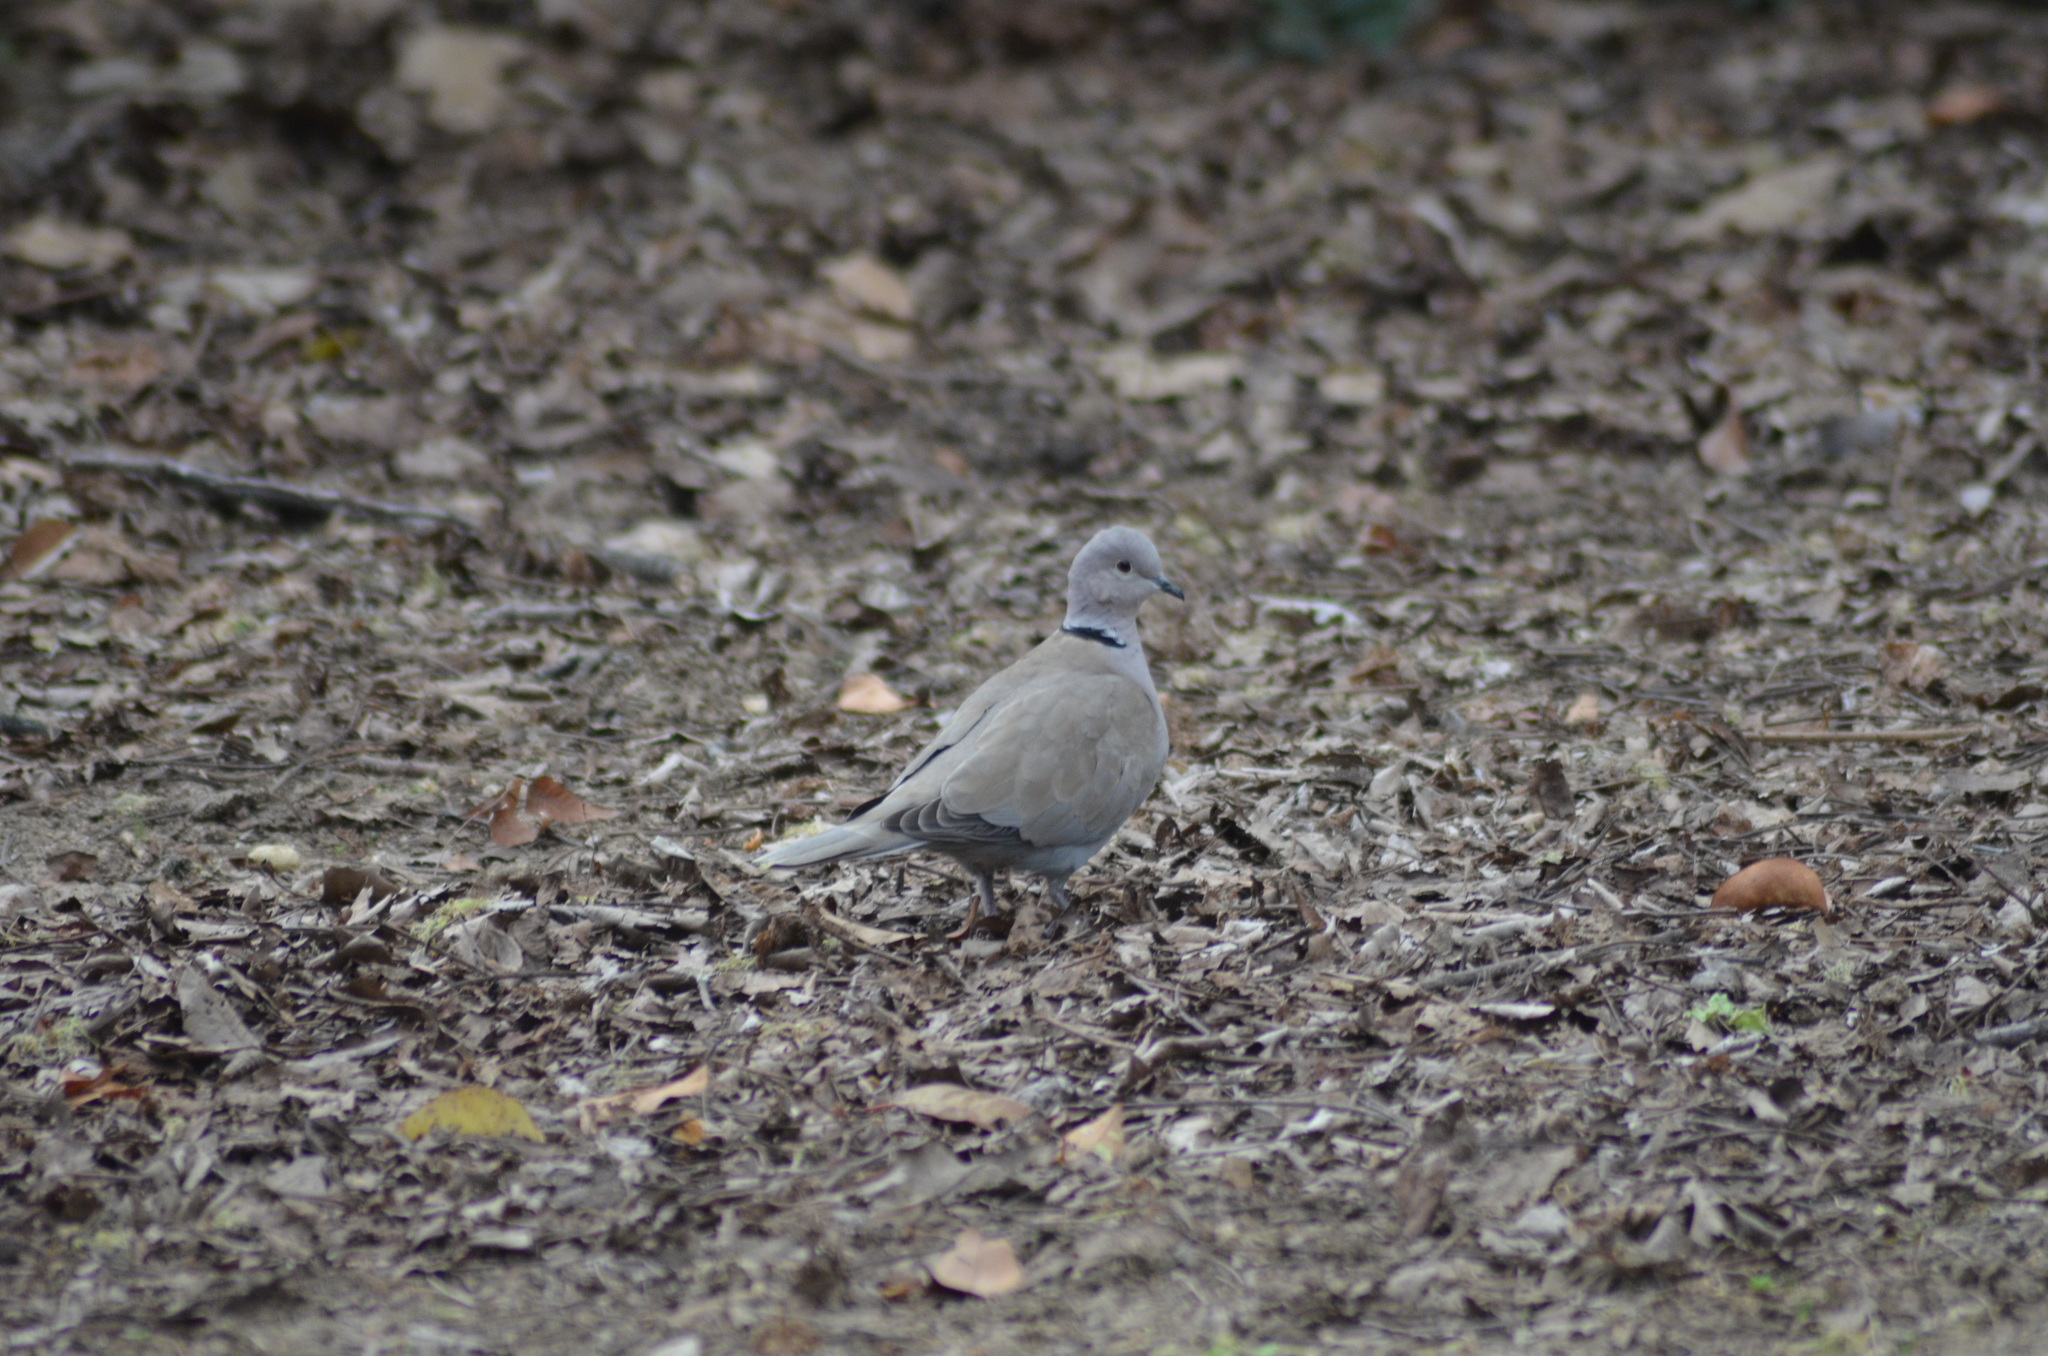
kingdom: Animalia
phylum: Chordata
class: Aves
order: Columbiformes
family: Columbidae
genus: Streptopelia
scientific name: Streptopelia decaocto
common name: Eurasian collared dove
